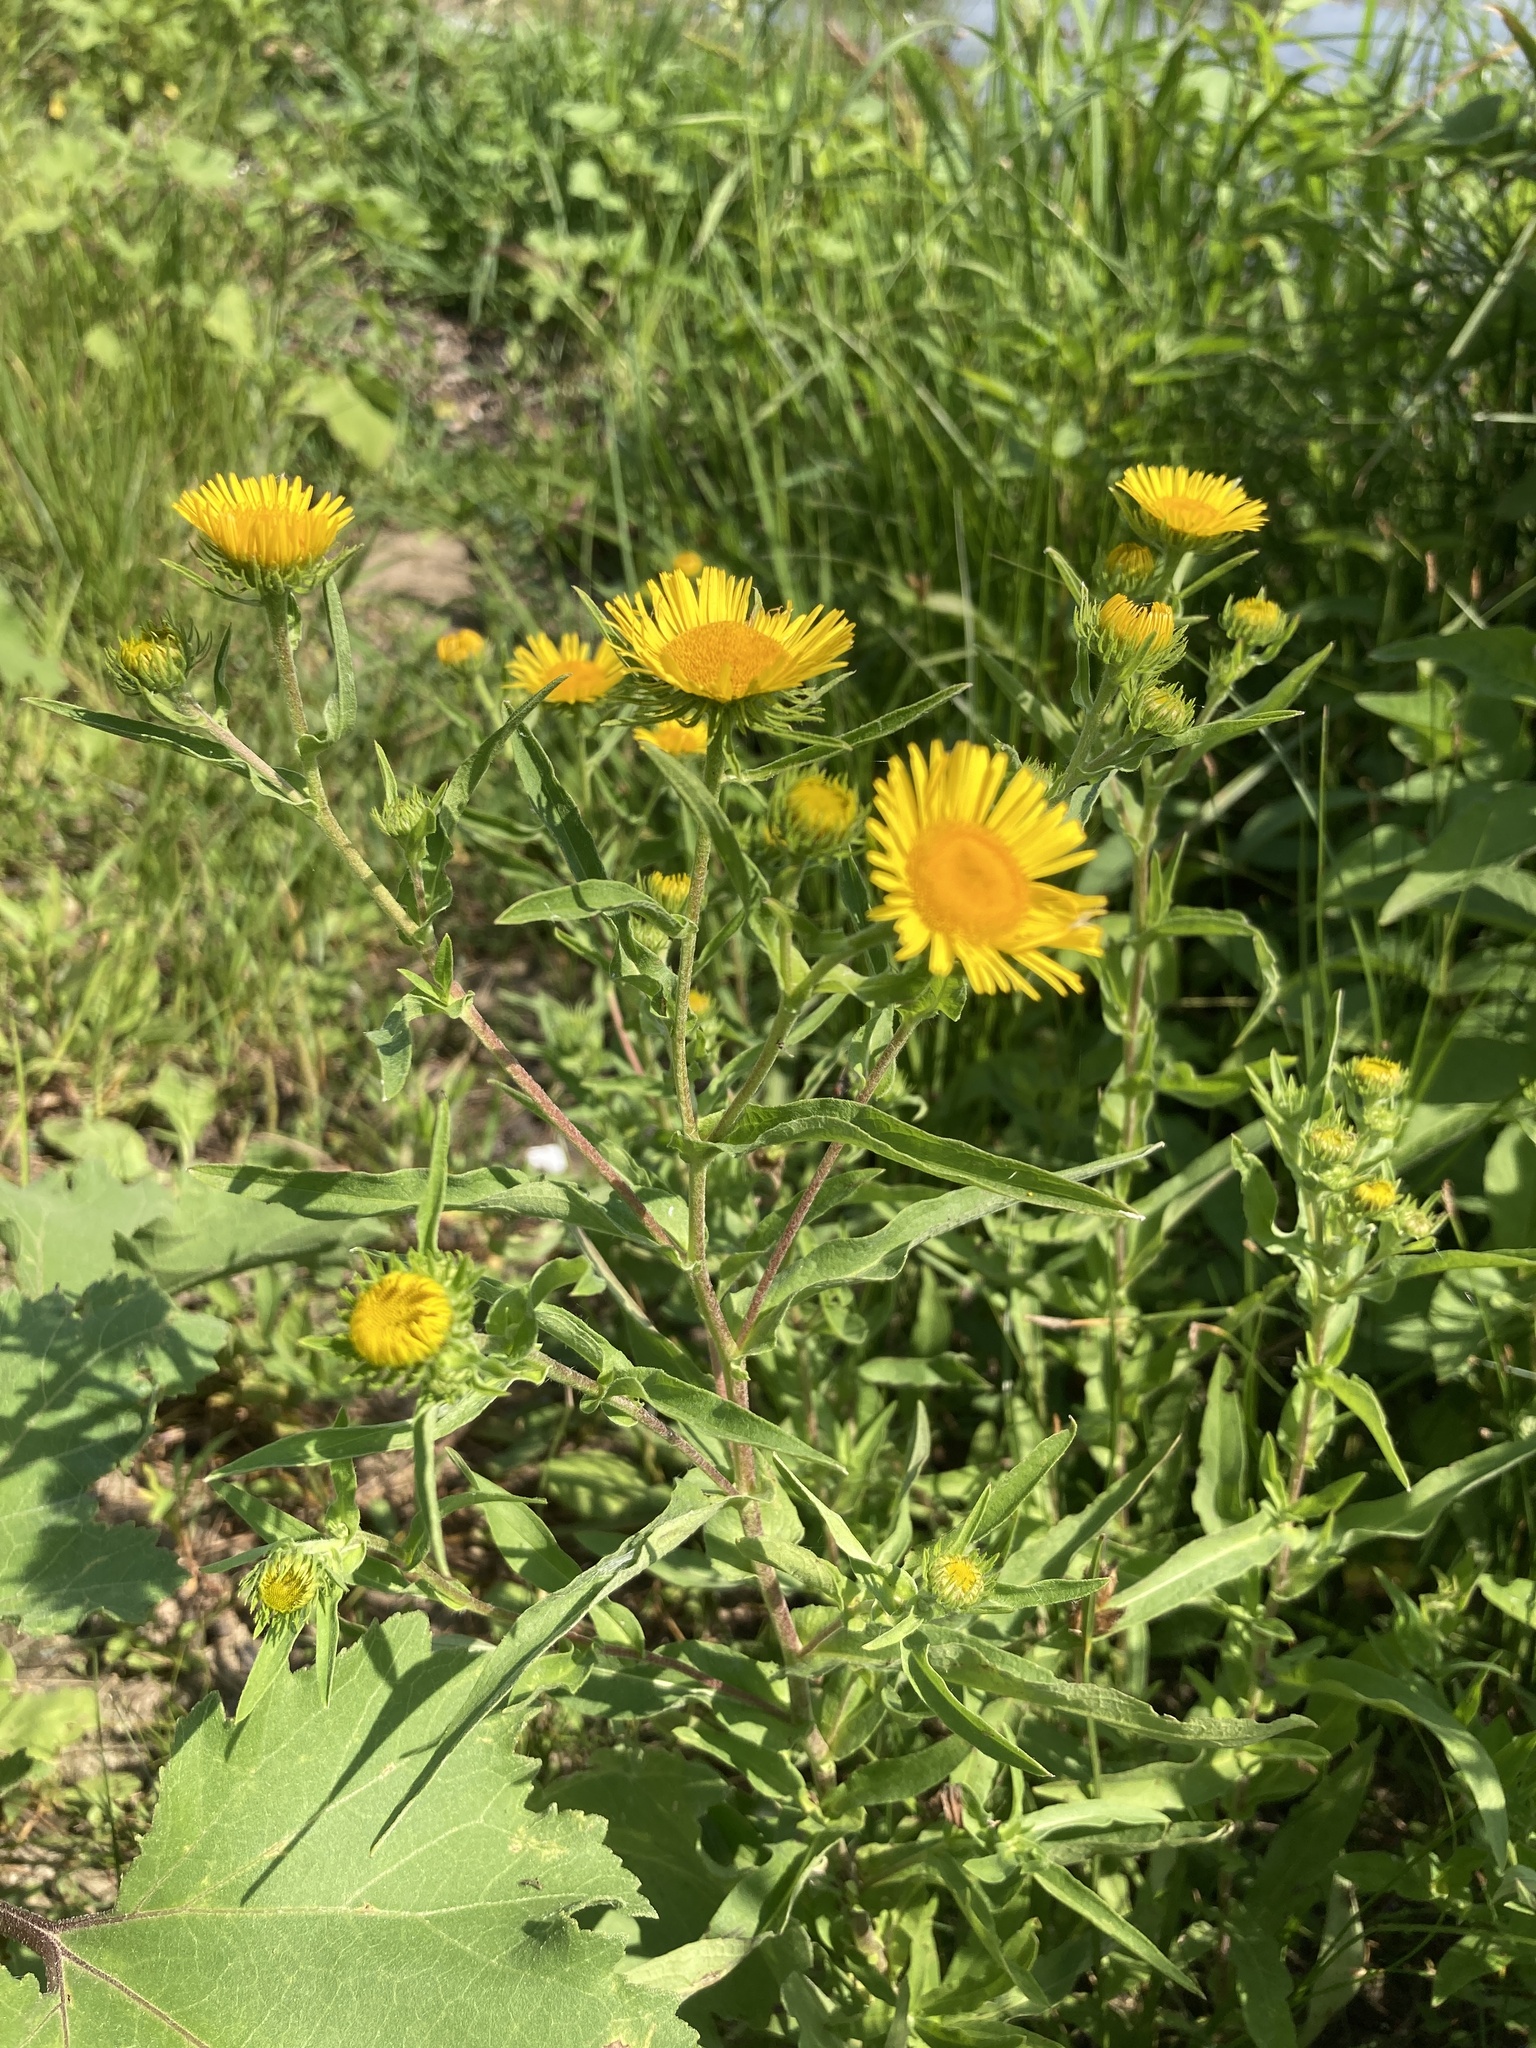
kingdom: Plantae
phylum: Tracheophyta
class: Magnoliopsida
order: Asterales
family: Asteraceae
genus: Pentanema
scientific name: Pentanema britannicum
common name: British elecampane
